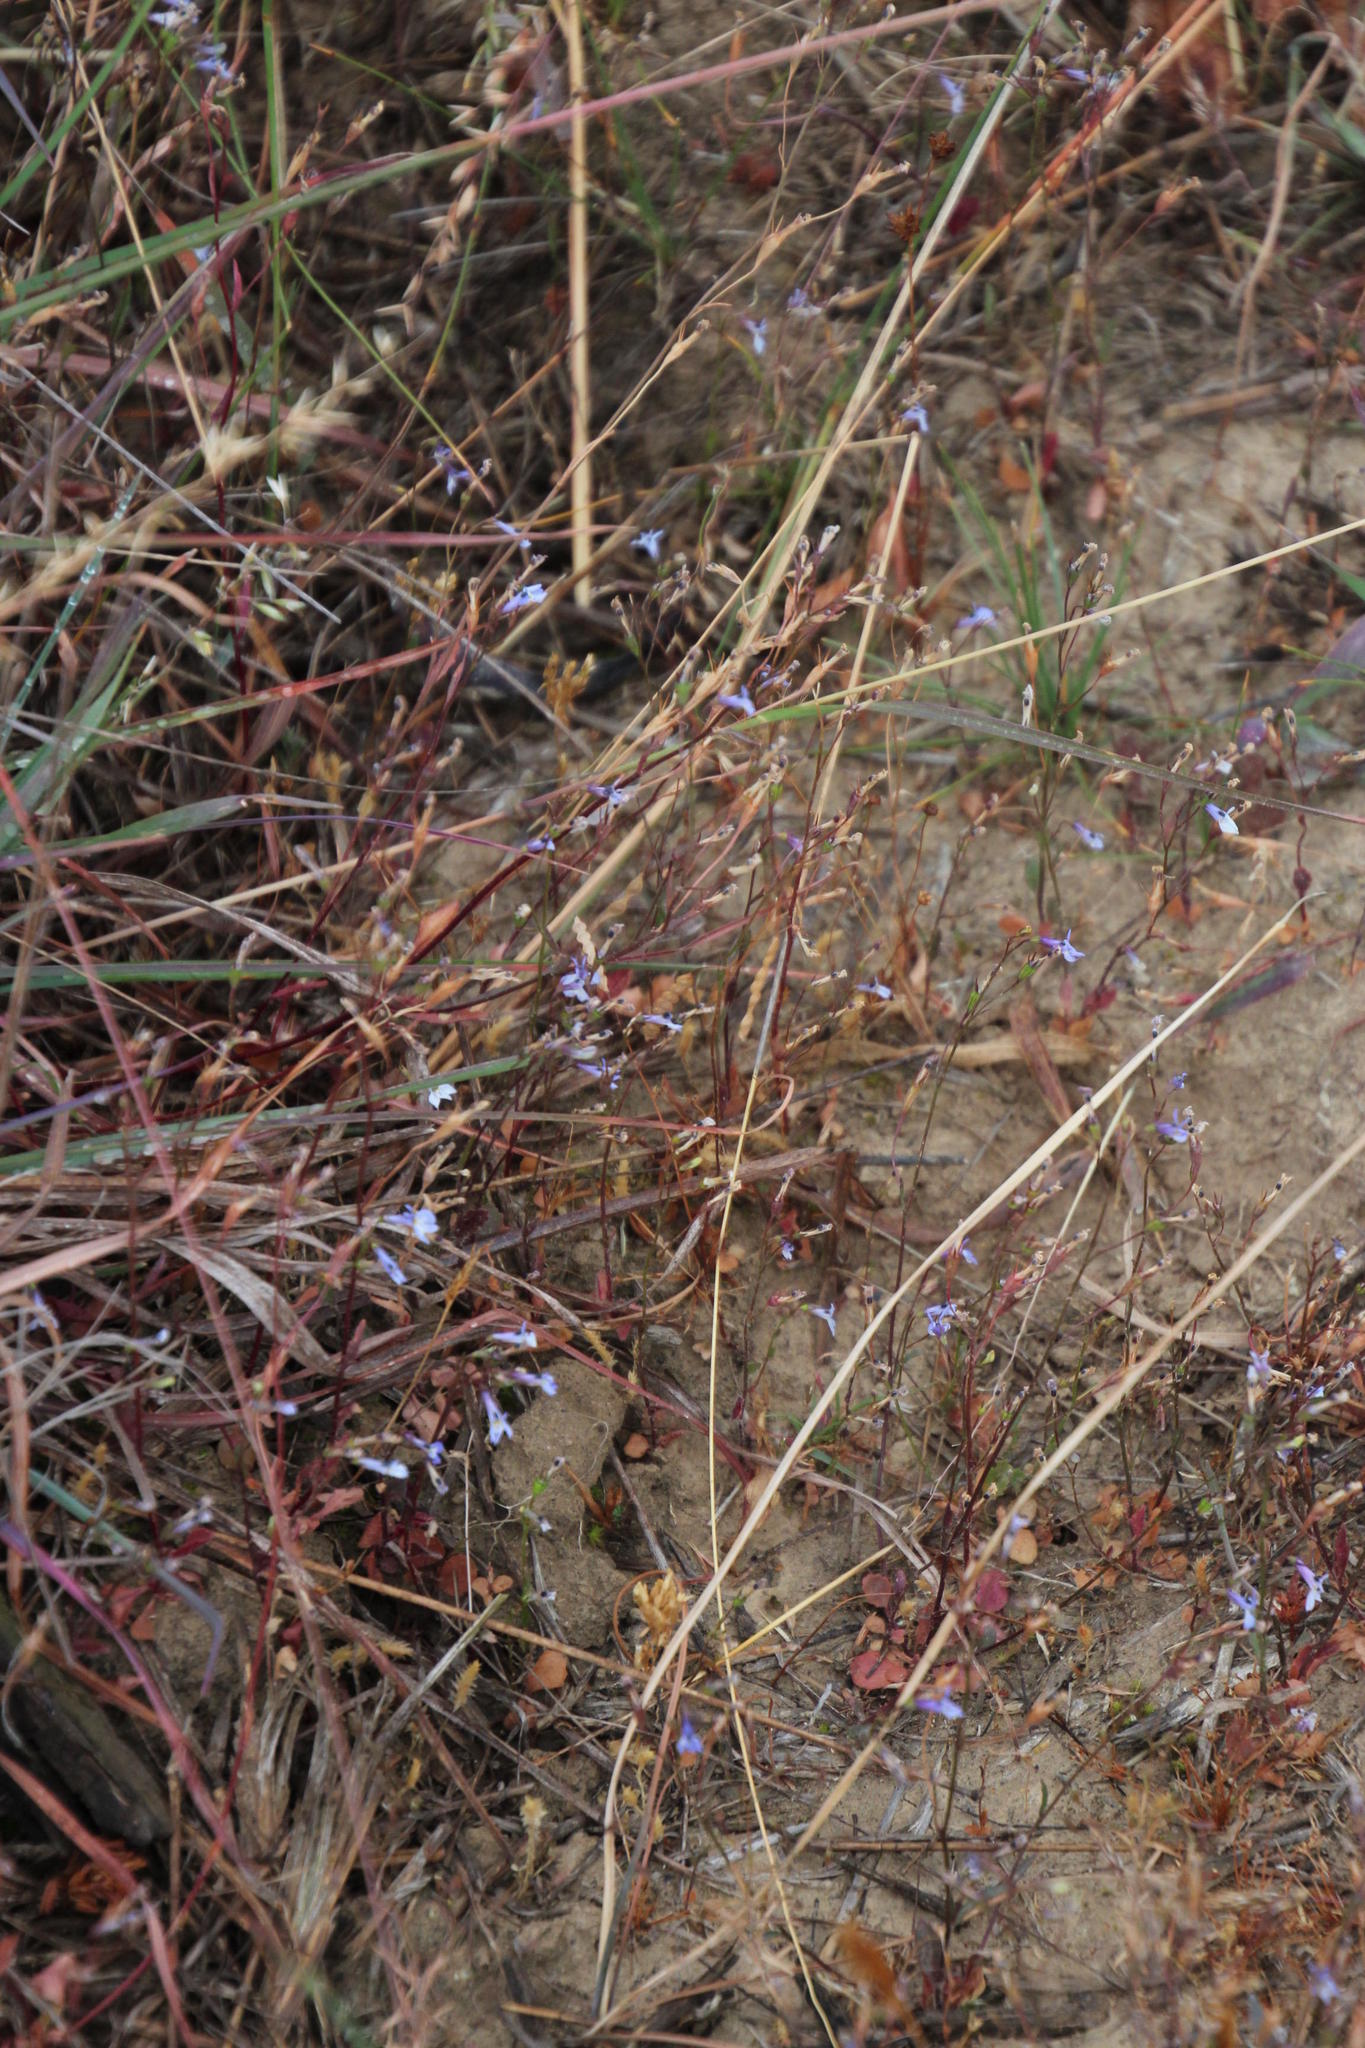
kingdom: Plantae
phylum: Tracheophyta
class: Magnoliopsida
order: Asterales
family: Campanulaceae
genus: Lobelia
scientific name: Lobelia erinus
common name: Edging lobelia
